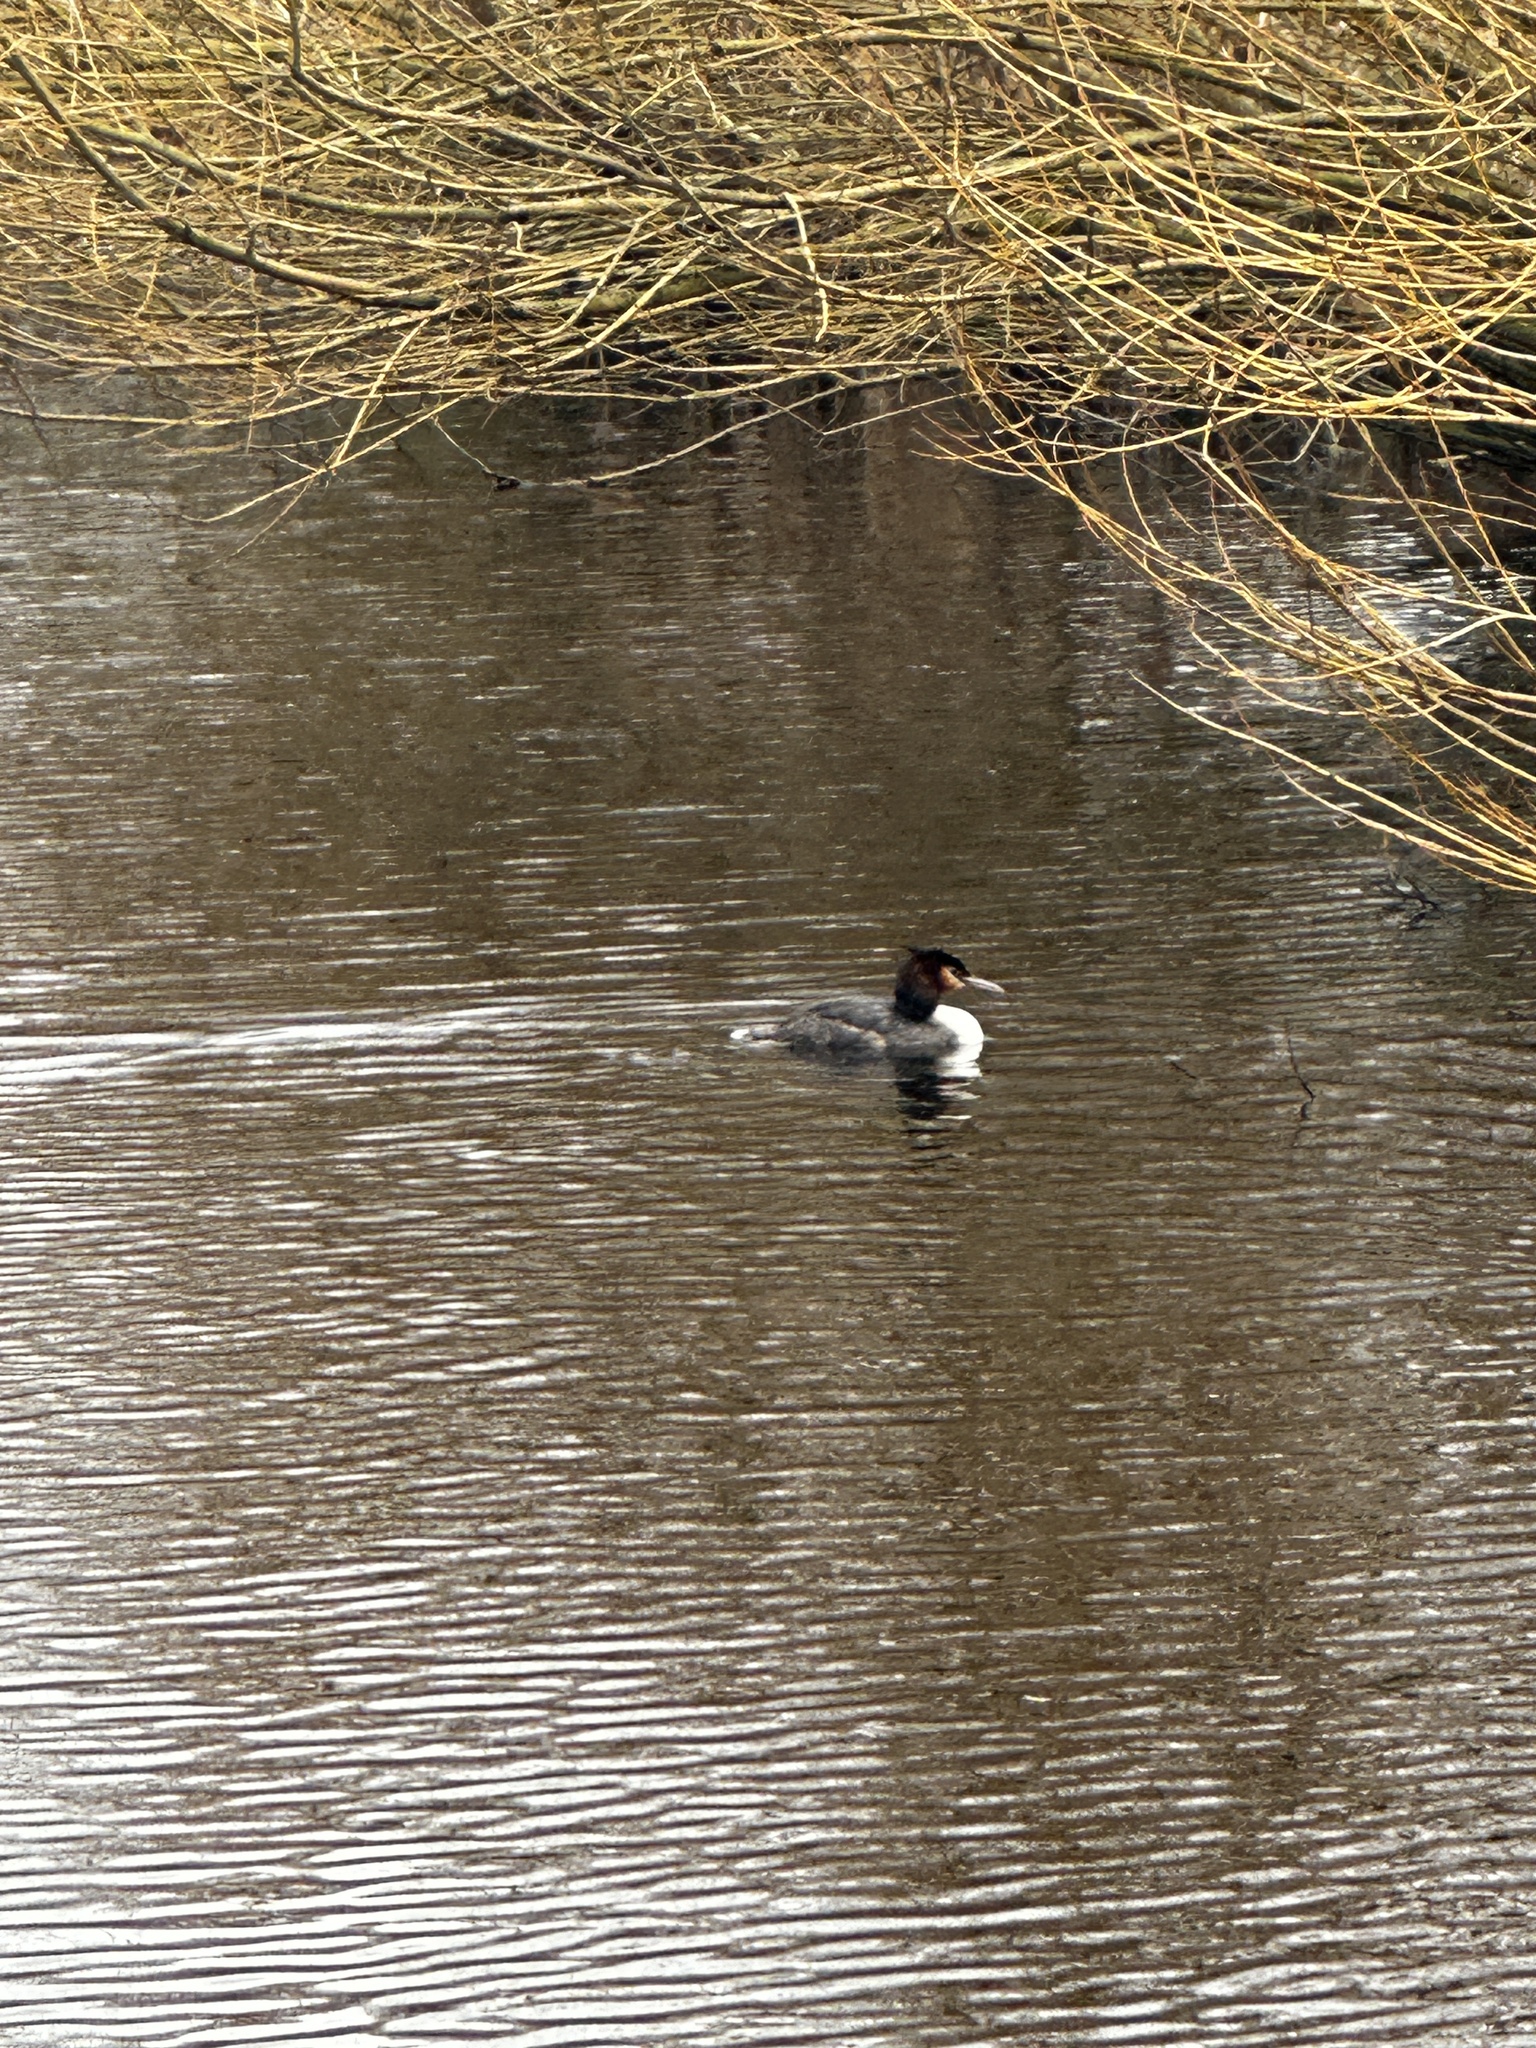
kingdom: Animalia
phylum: Chordata
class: Aves
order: Podicipediformes
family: Podicipedidae
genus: Podiceps
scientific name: Podiceps cristatus
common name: Great crested grebe
